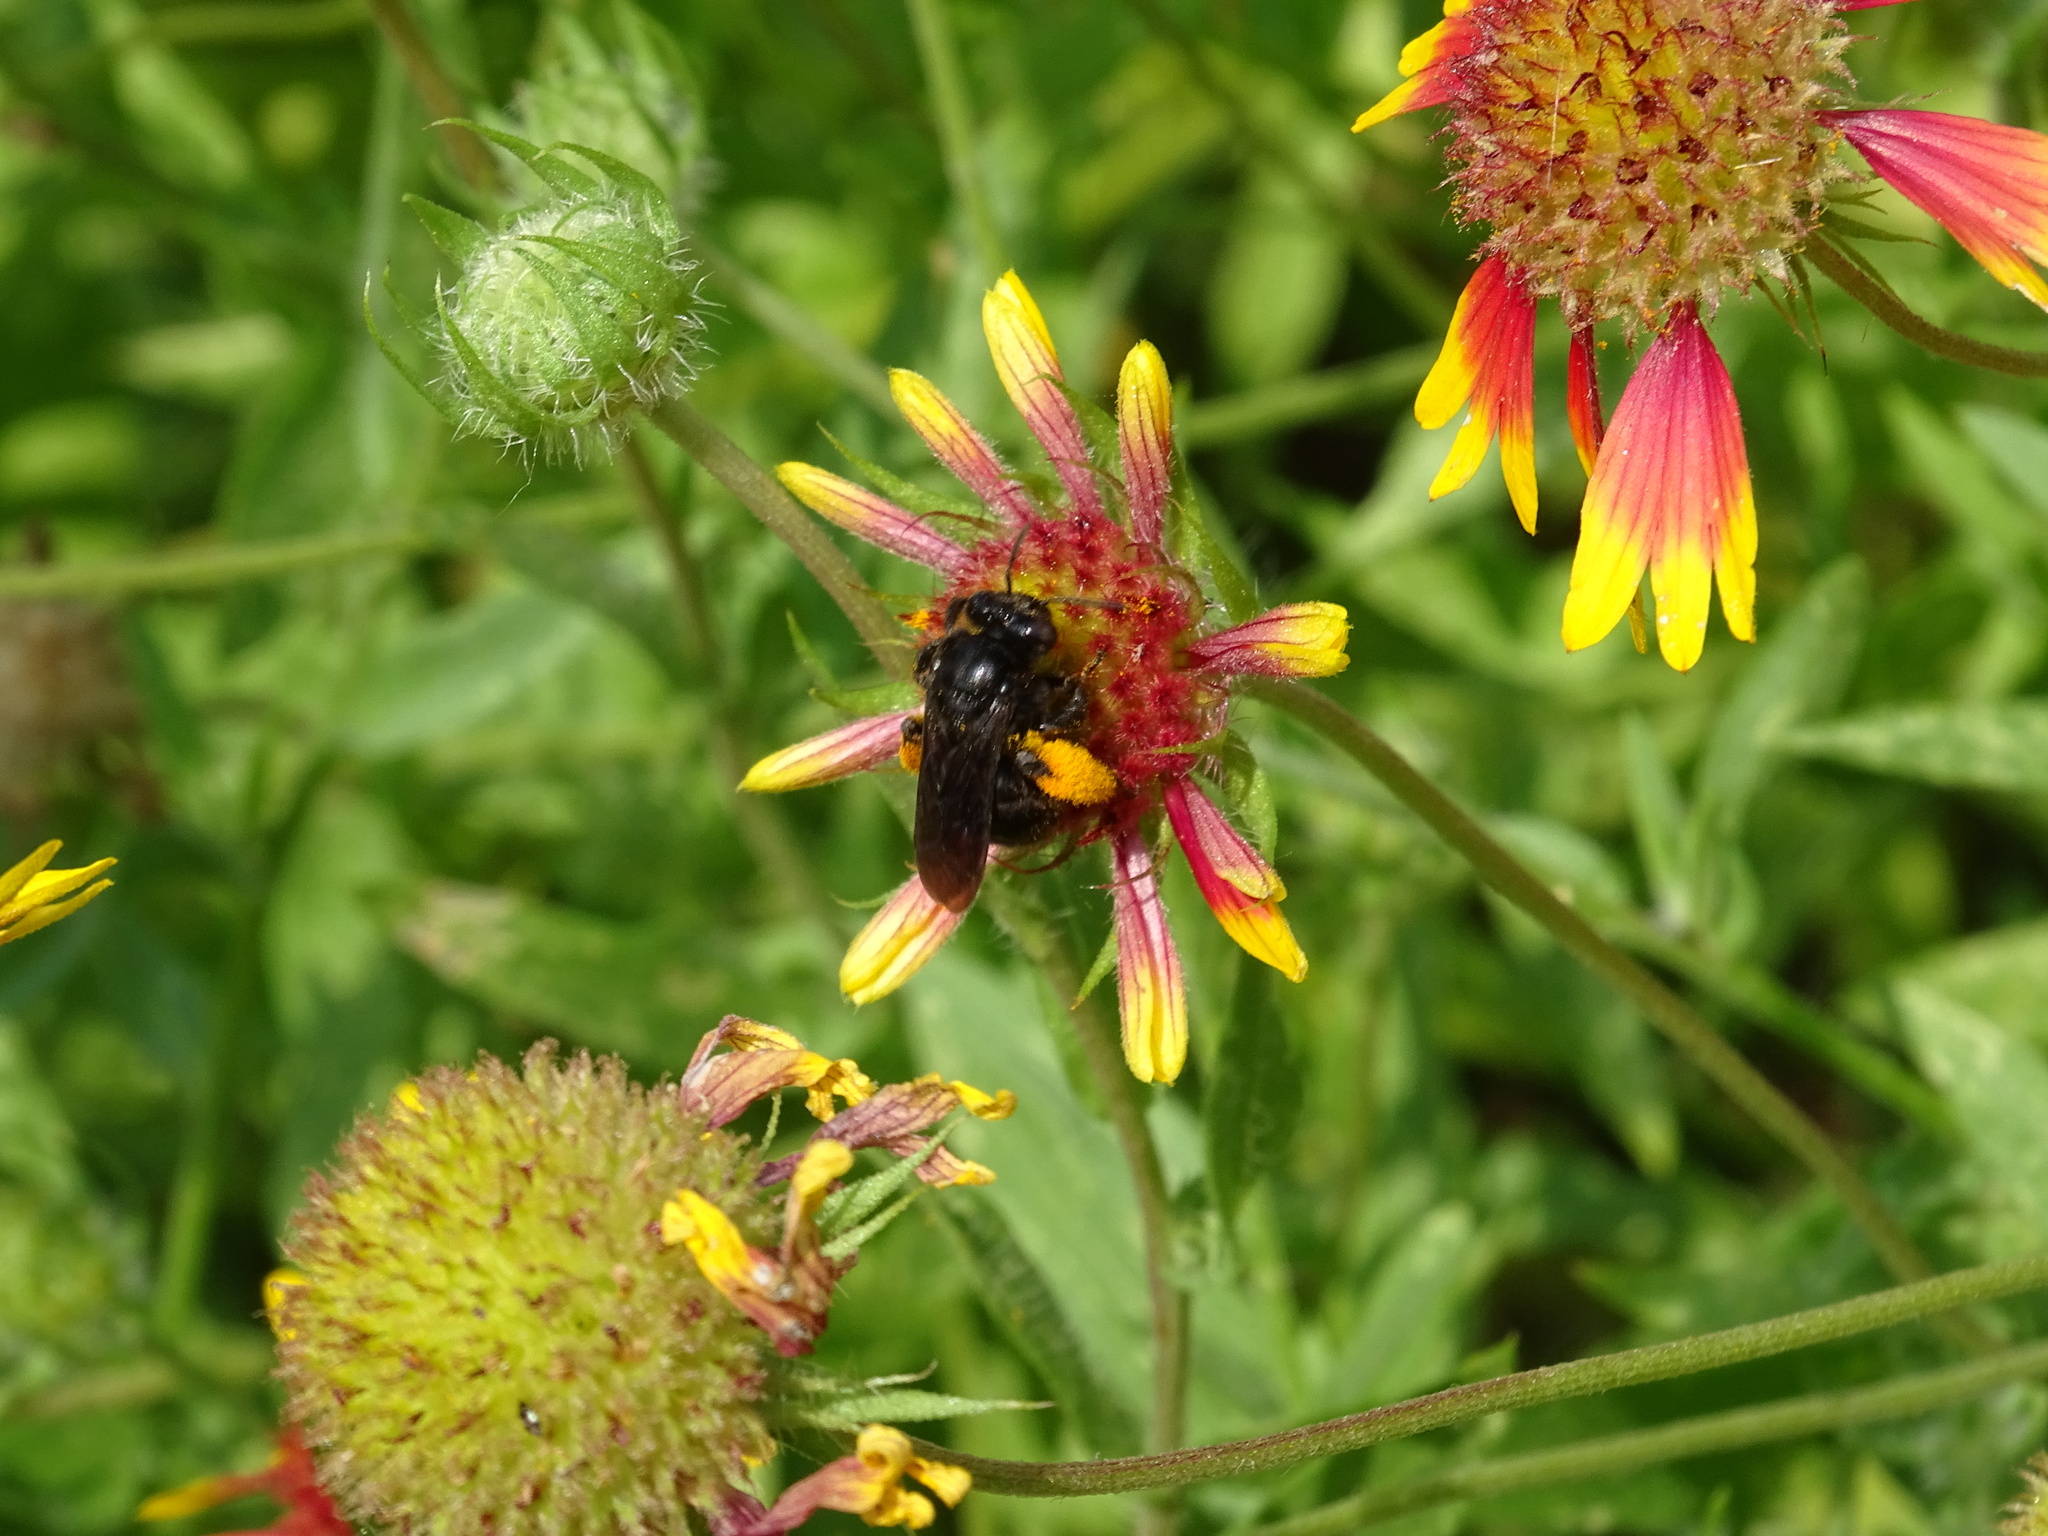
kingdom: Animalia
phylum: Arthropoda
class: Insecta
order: Hymenoptera
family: Apidae
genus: Melissodes
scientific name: Melissodes bimaculatus
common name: Two-spotted long-horned bee
